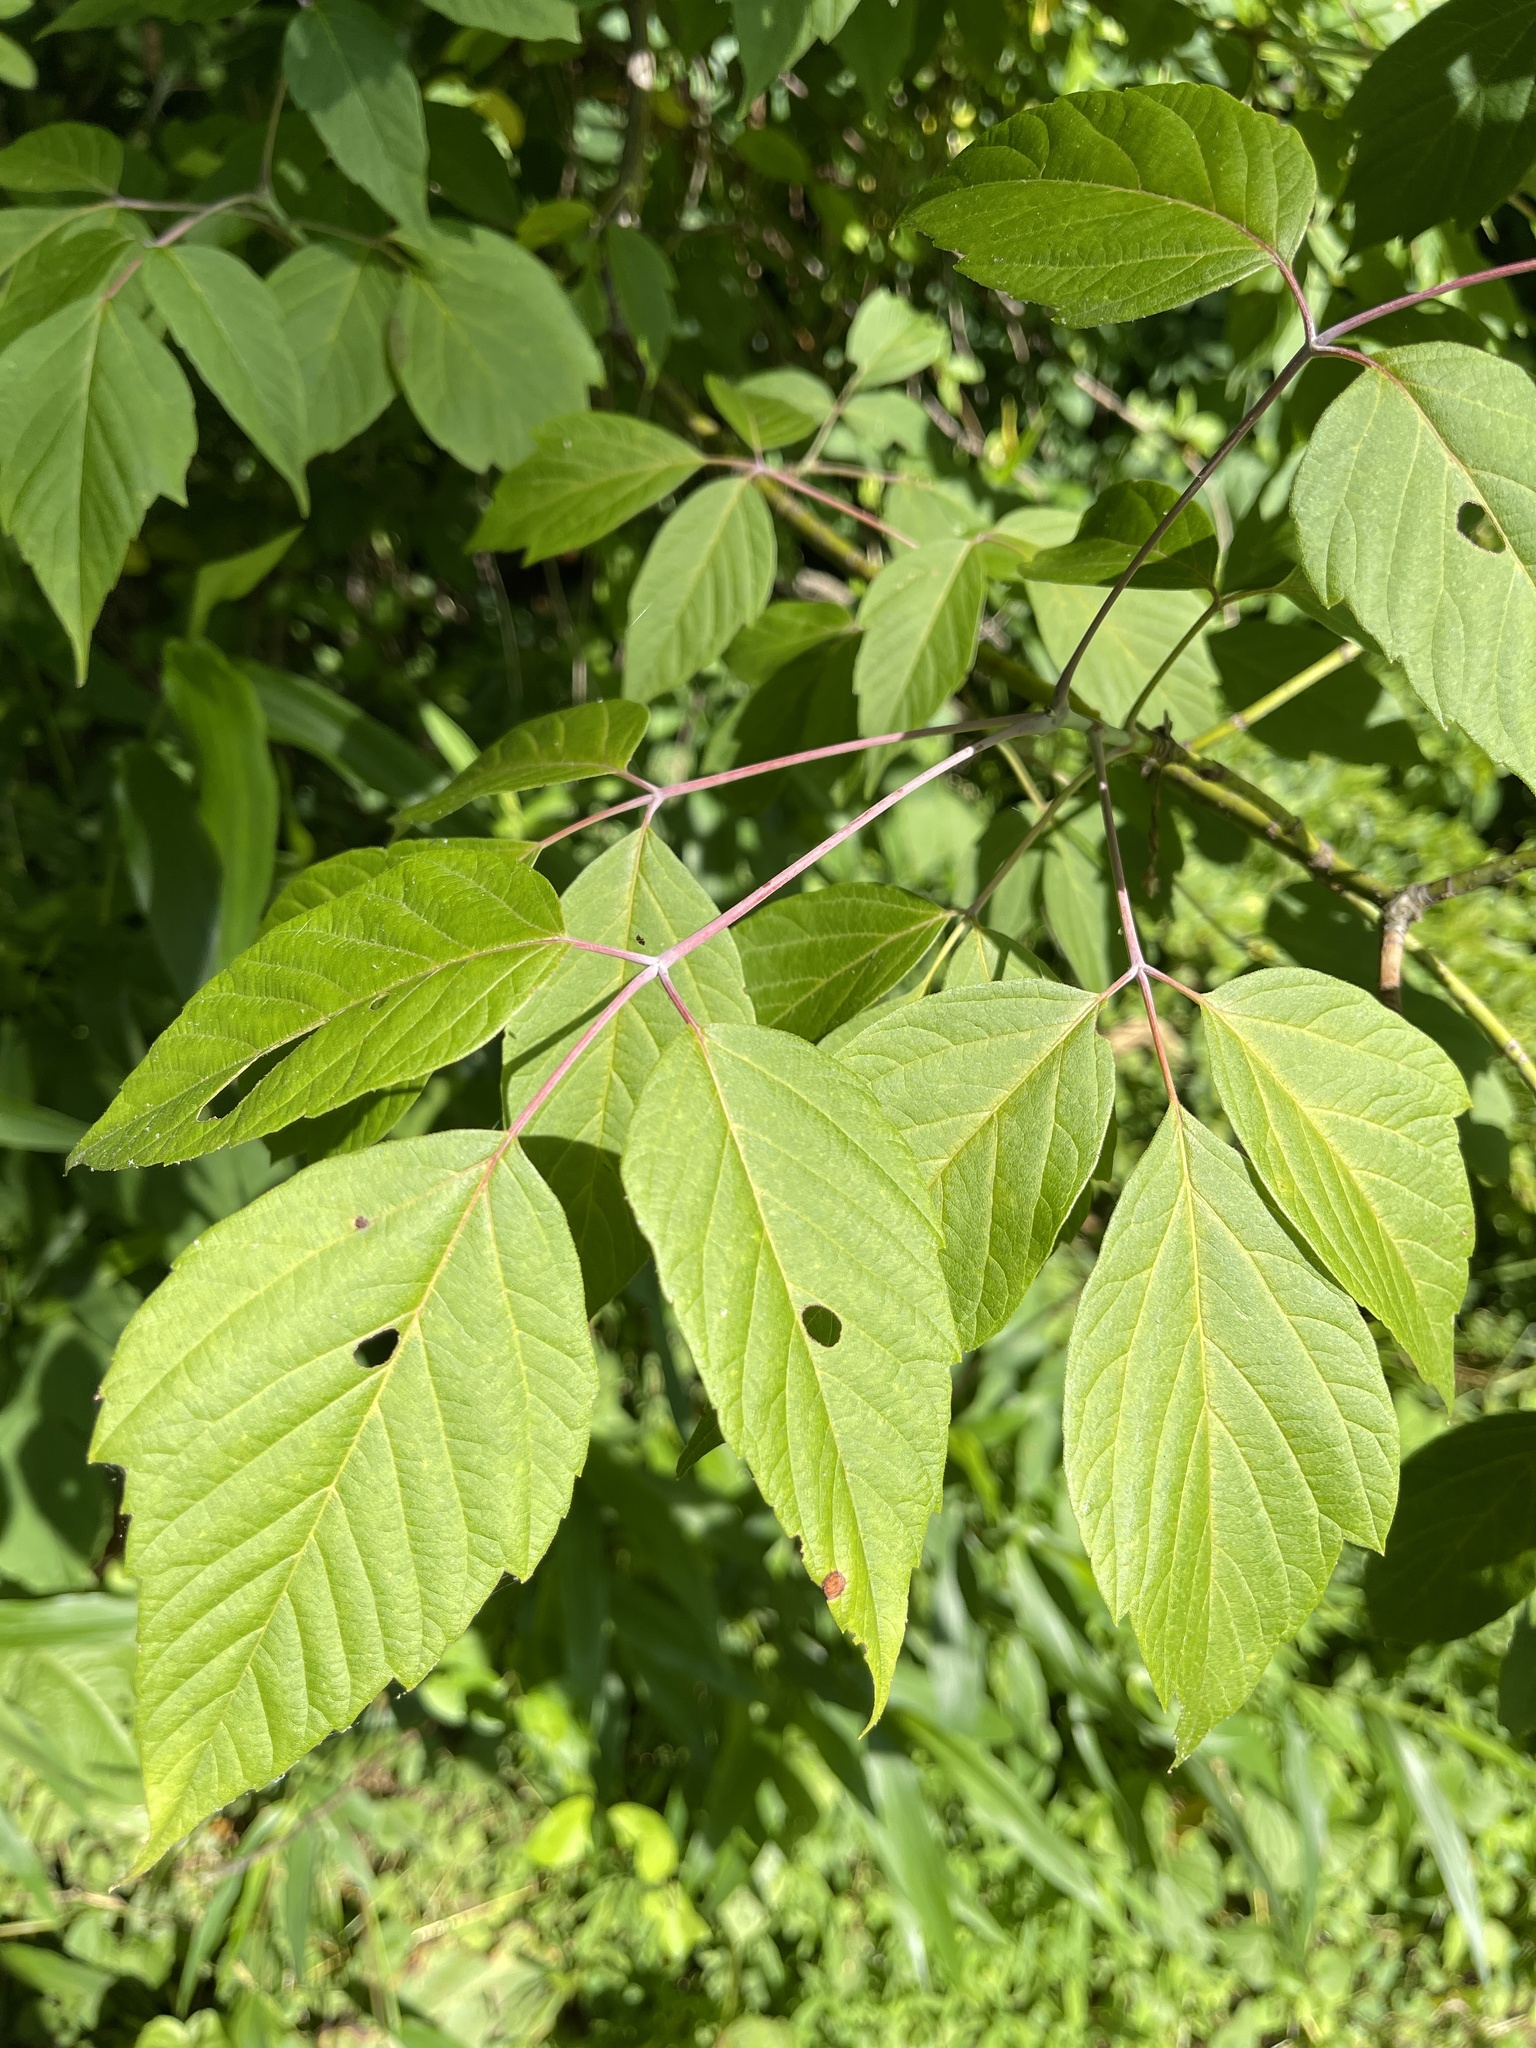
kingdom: Plantae
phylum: Tracheophyta
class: Magnoliopsida
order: Sapindales
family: Sapindaceae
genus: Acer
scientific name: Acer negundo
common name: Ashleaf maple
